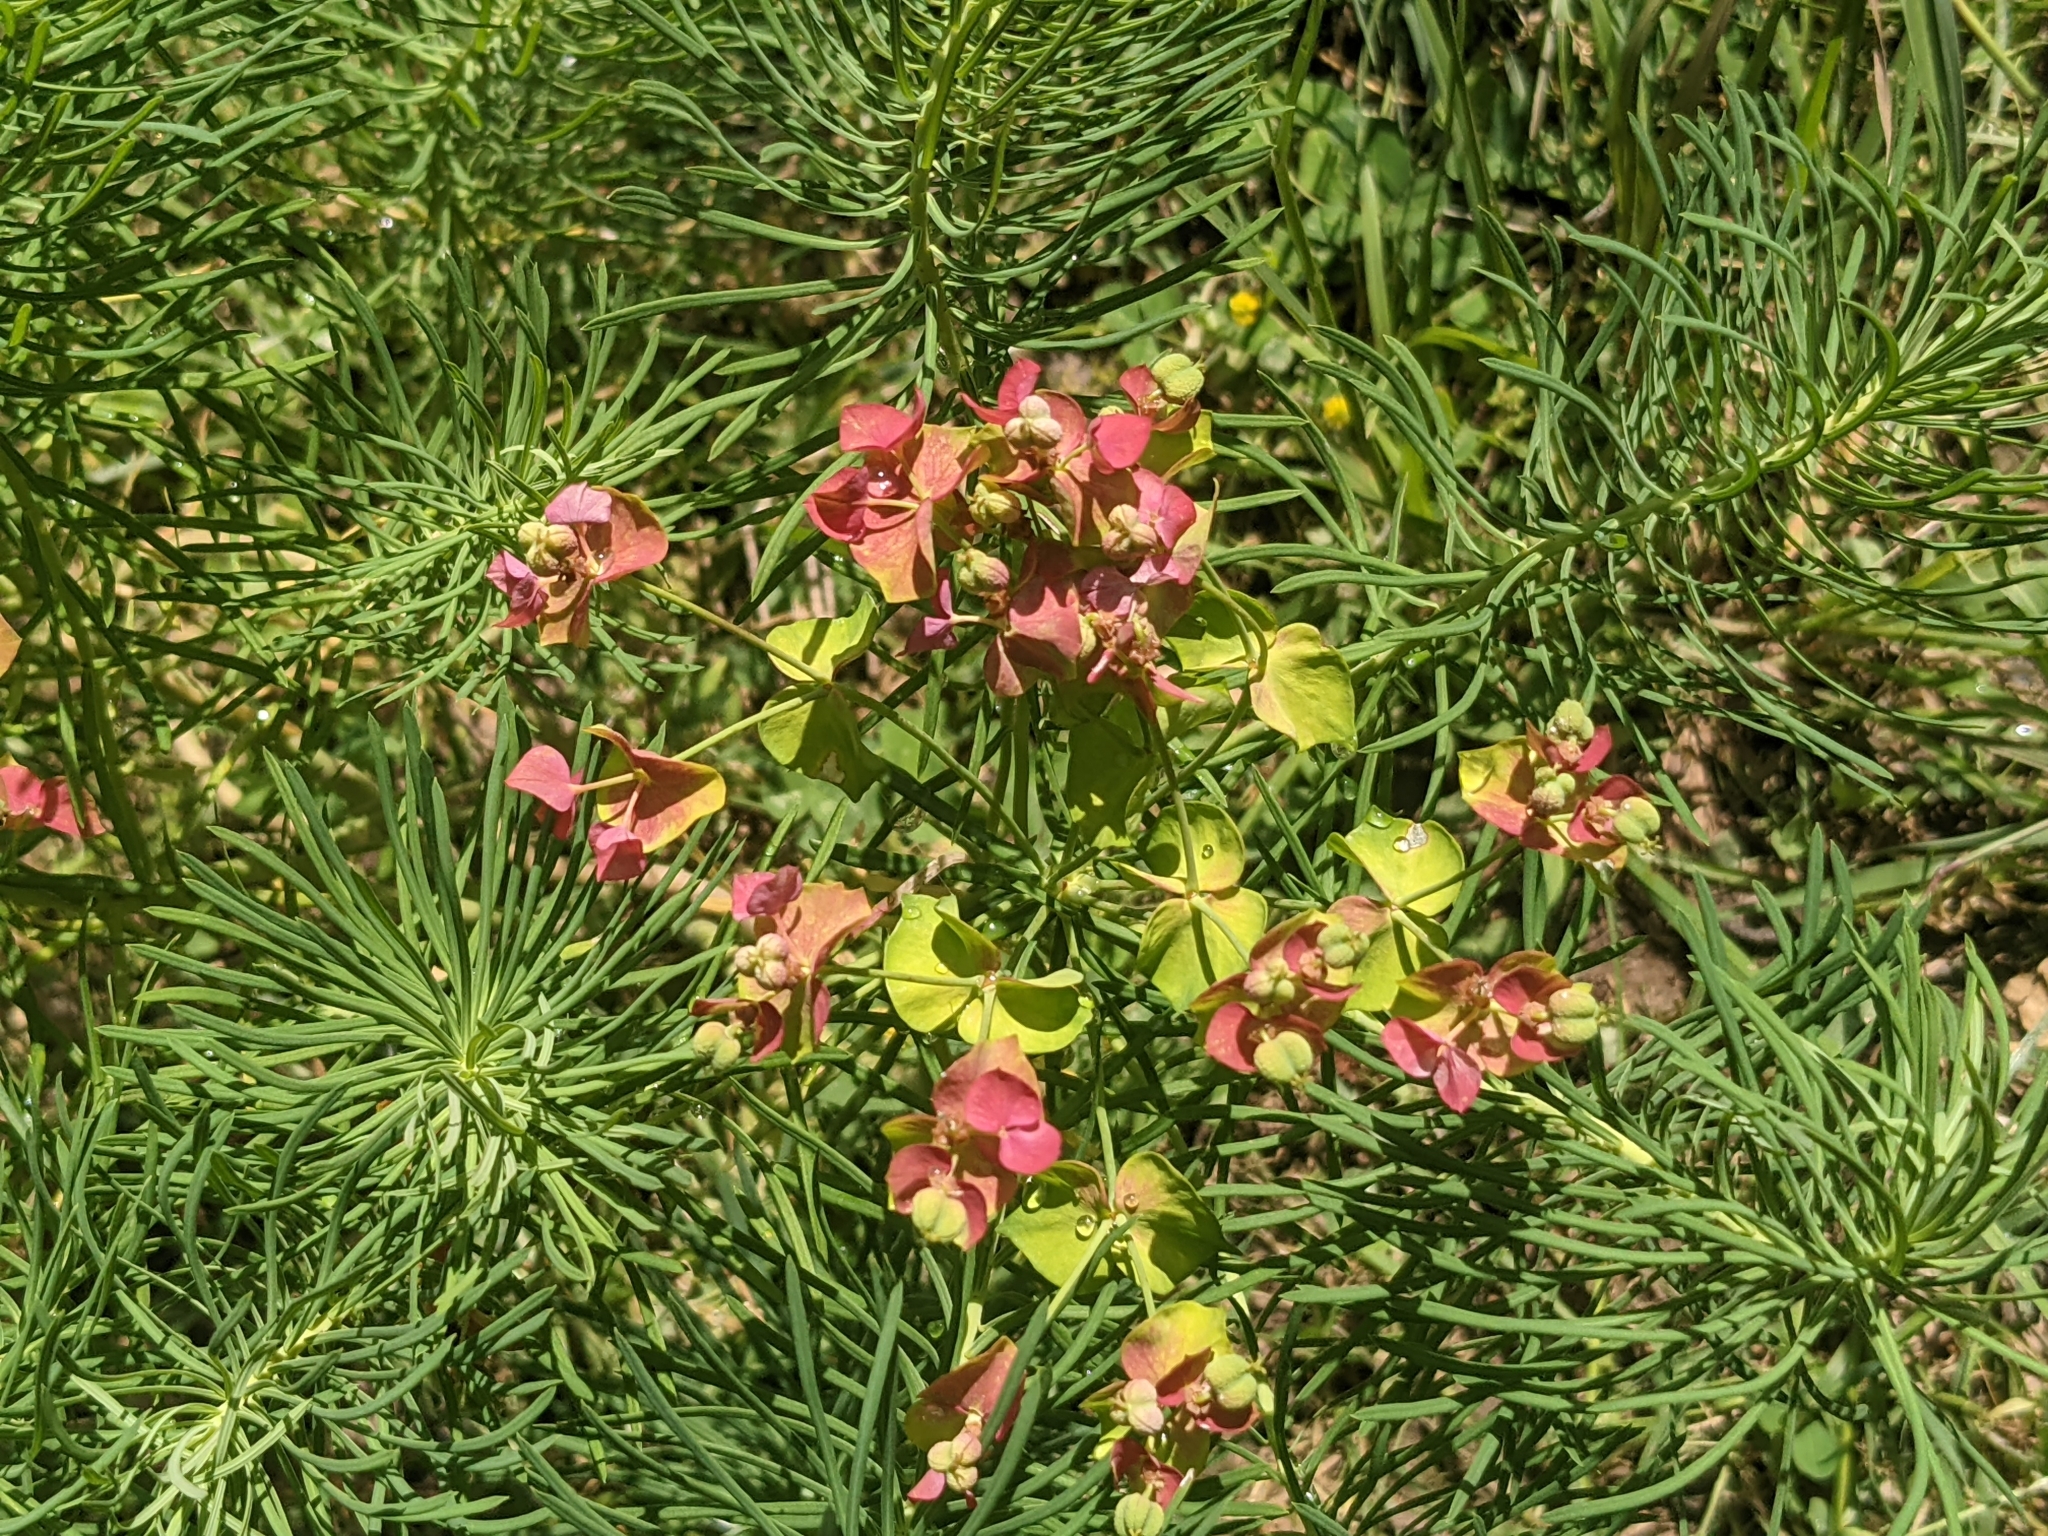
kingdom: Plantae
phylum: Tracheophyta
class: Magnoliopsida
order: Malpighiales
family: Euphorbiaceae
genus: Euphorbia
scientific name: Euphorbia cyparissias
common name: Cypress spurge
